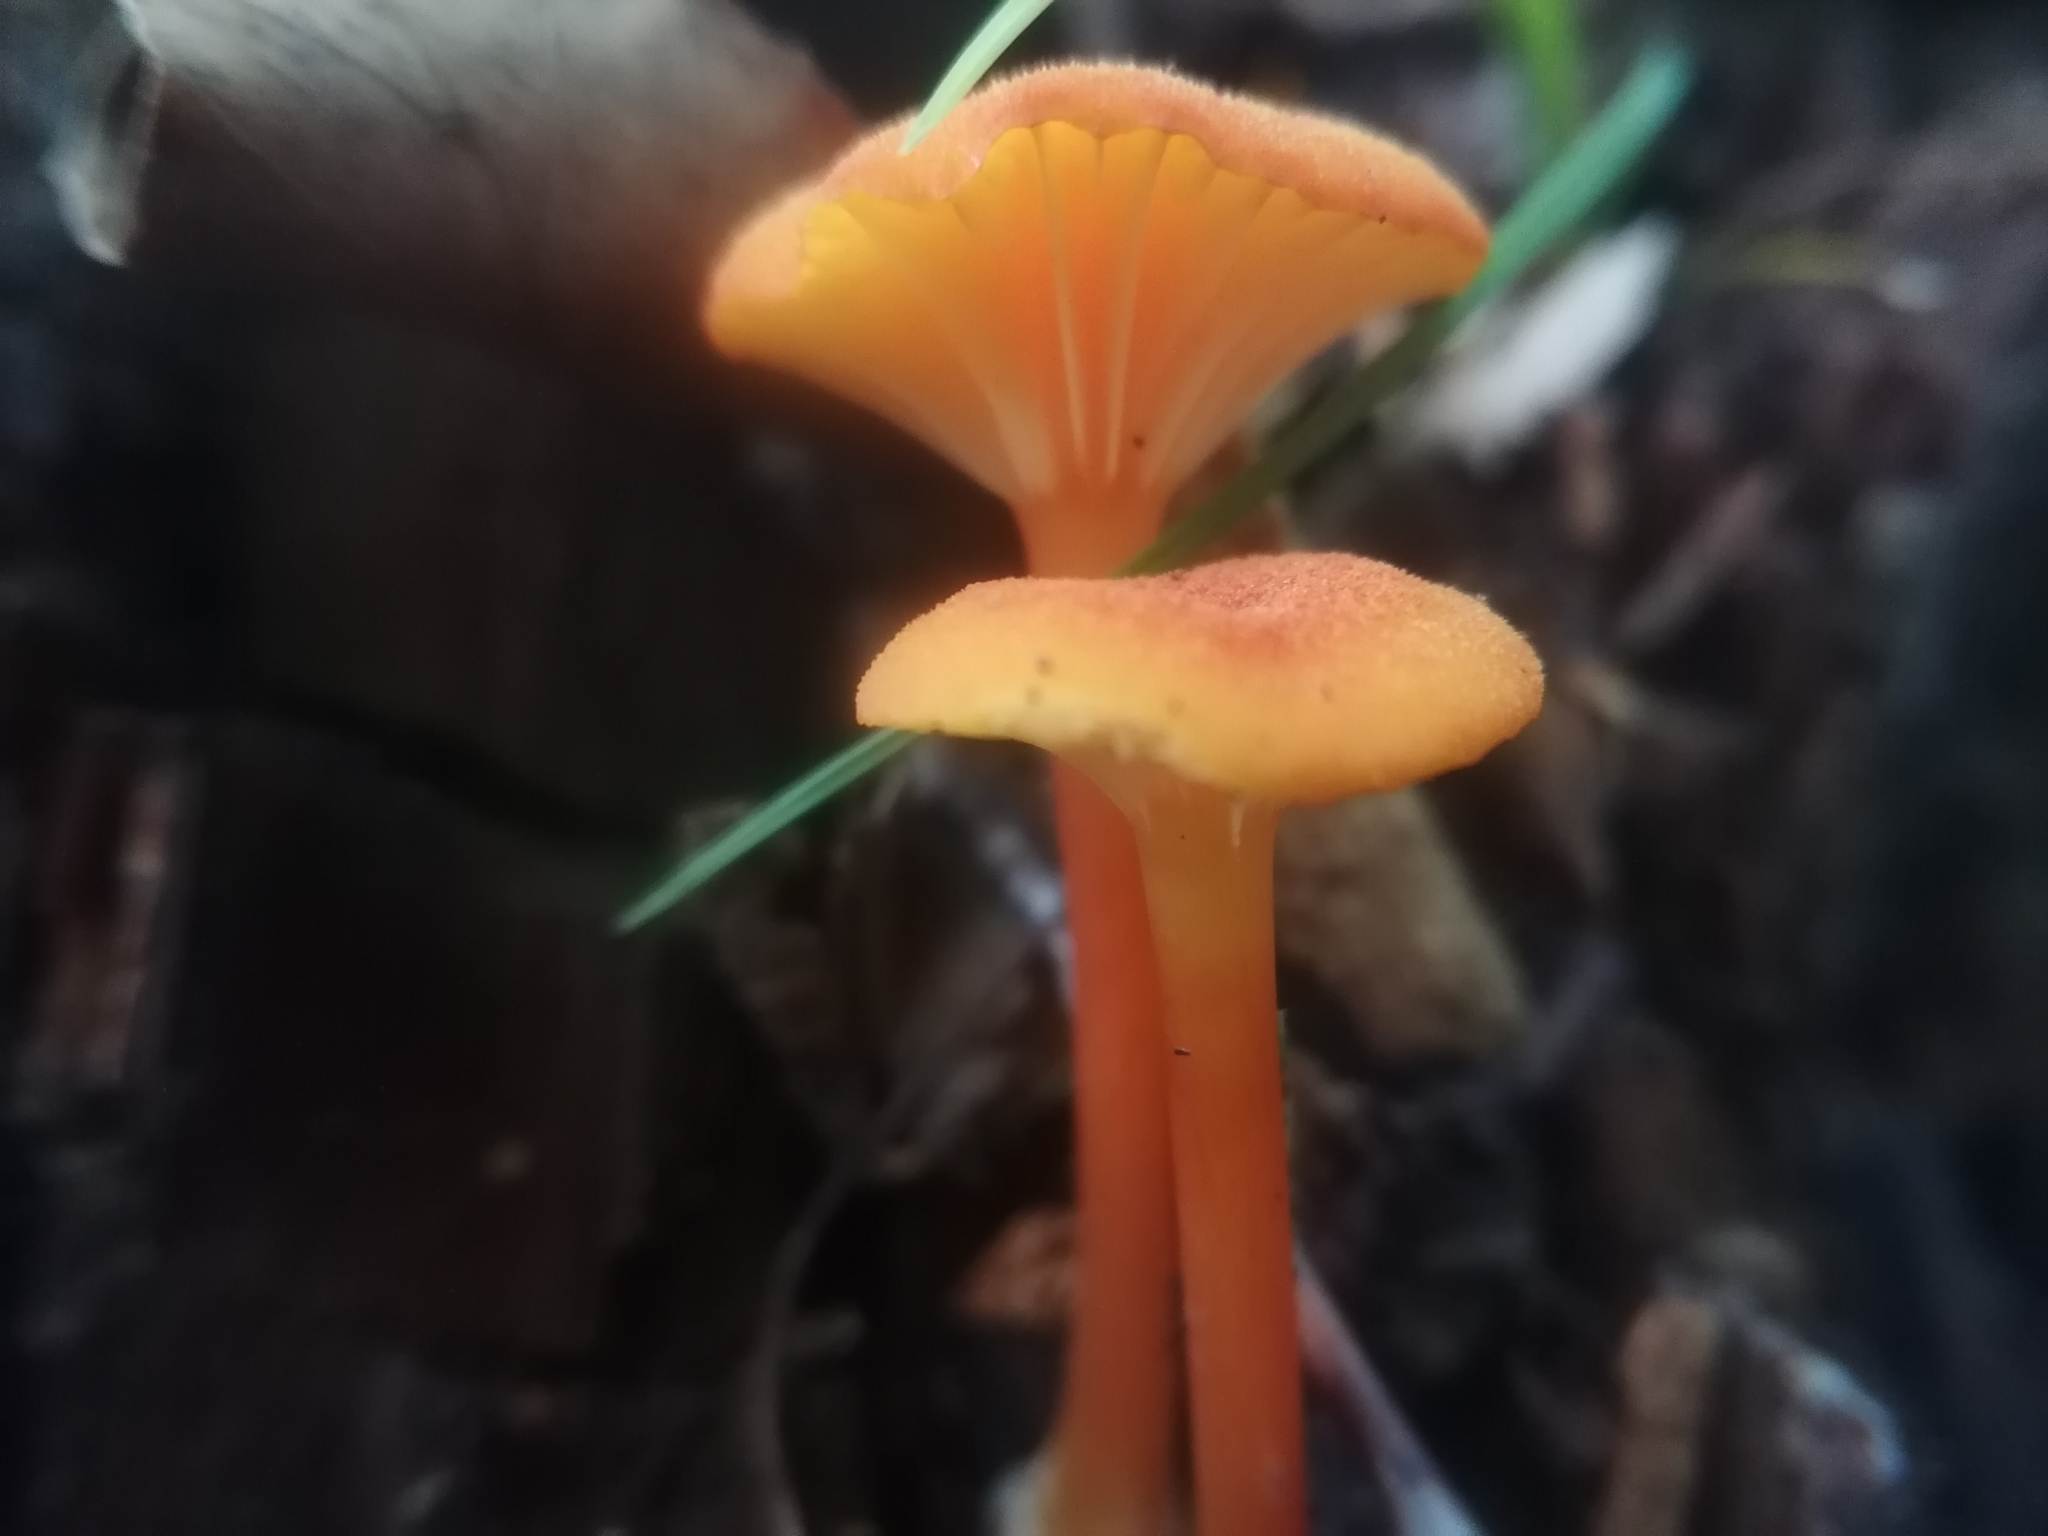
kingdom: Fungi
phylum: Basidiomycota
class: Agaricomycetes
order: Agaricales
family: Hygrophoraceae
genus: Hygrocybe
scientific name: Hygrocybe cantharellus
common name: Goblet waxcap
